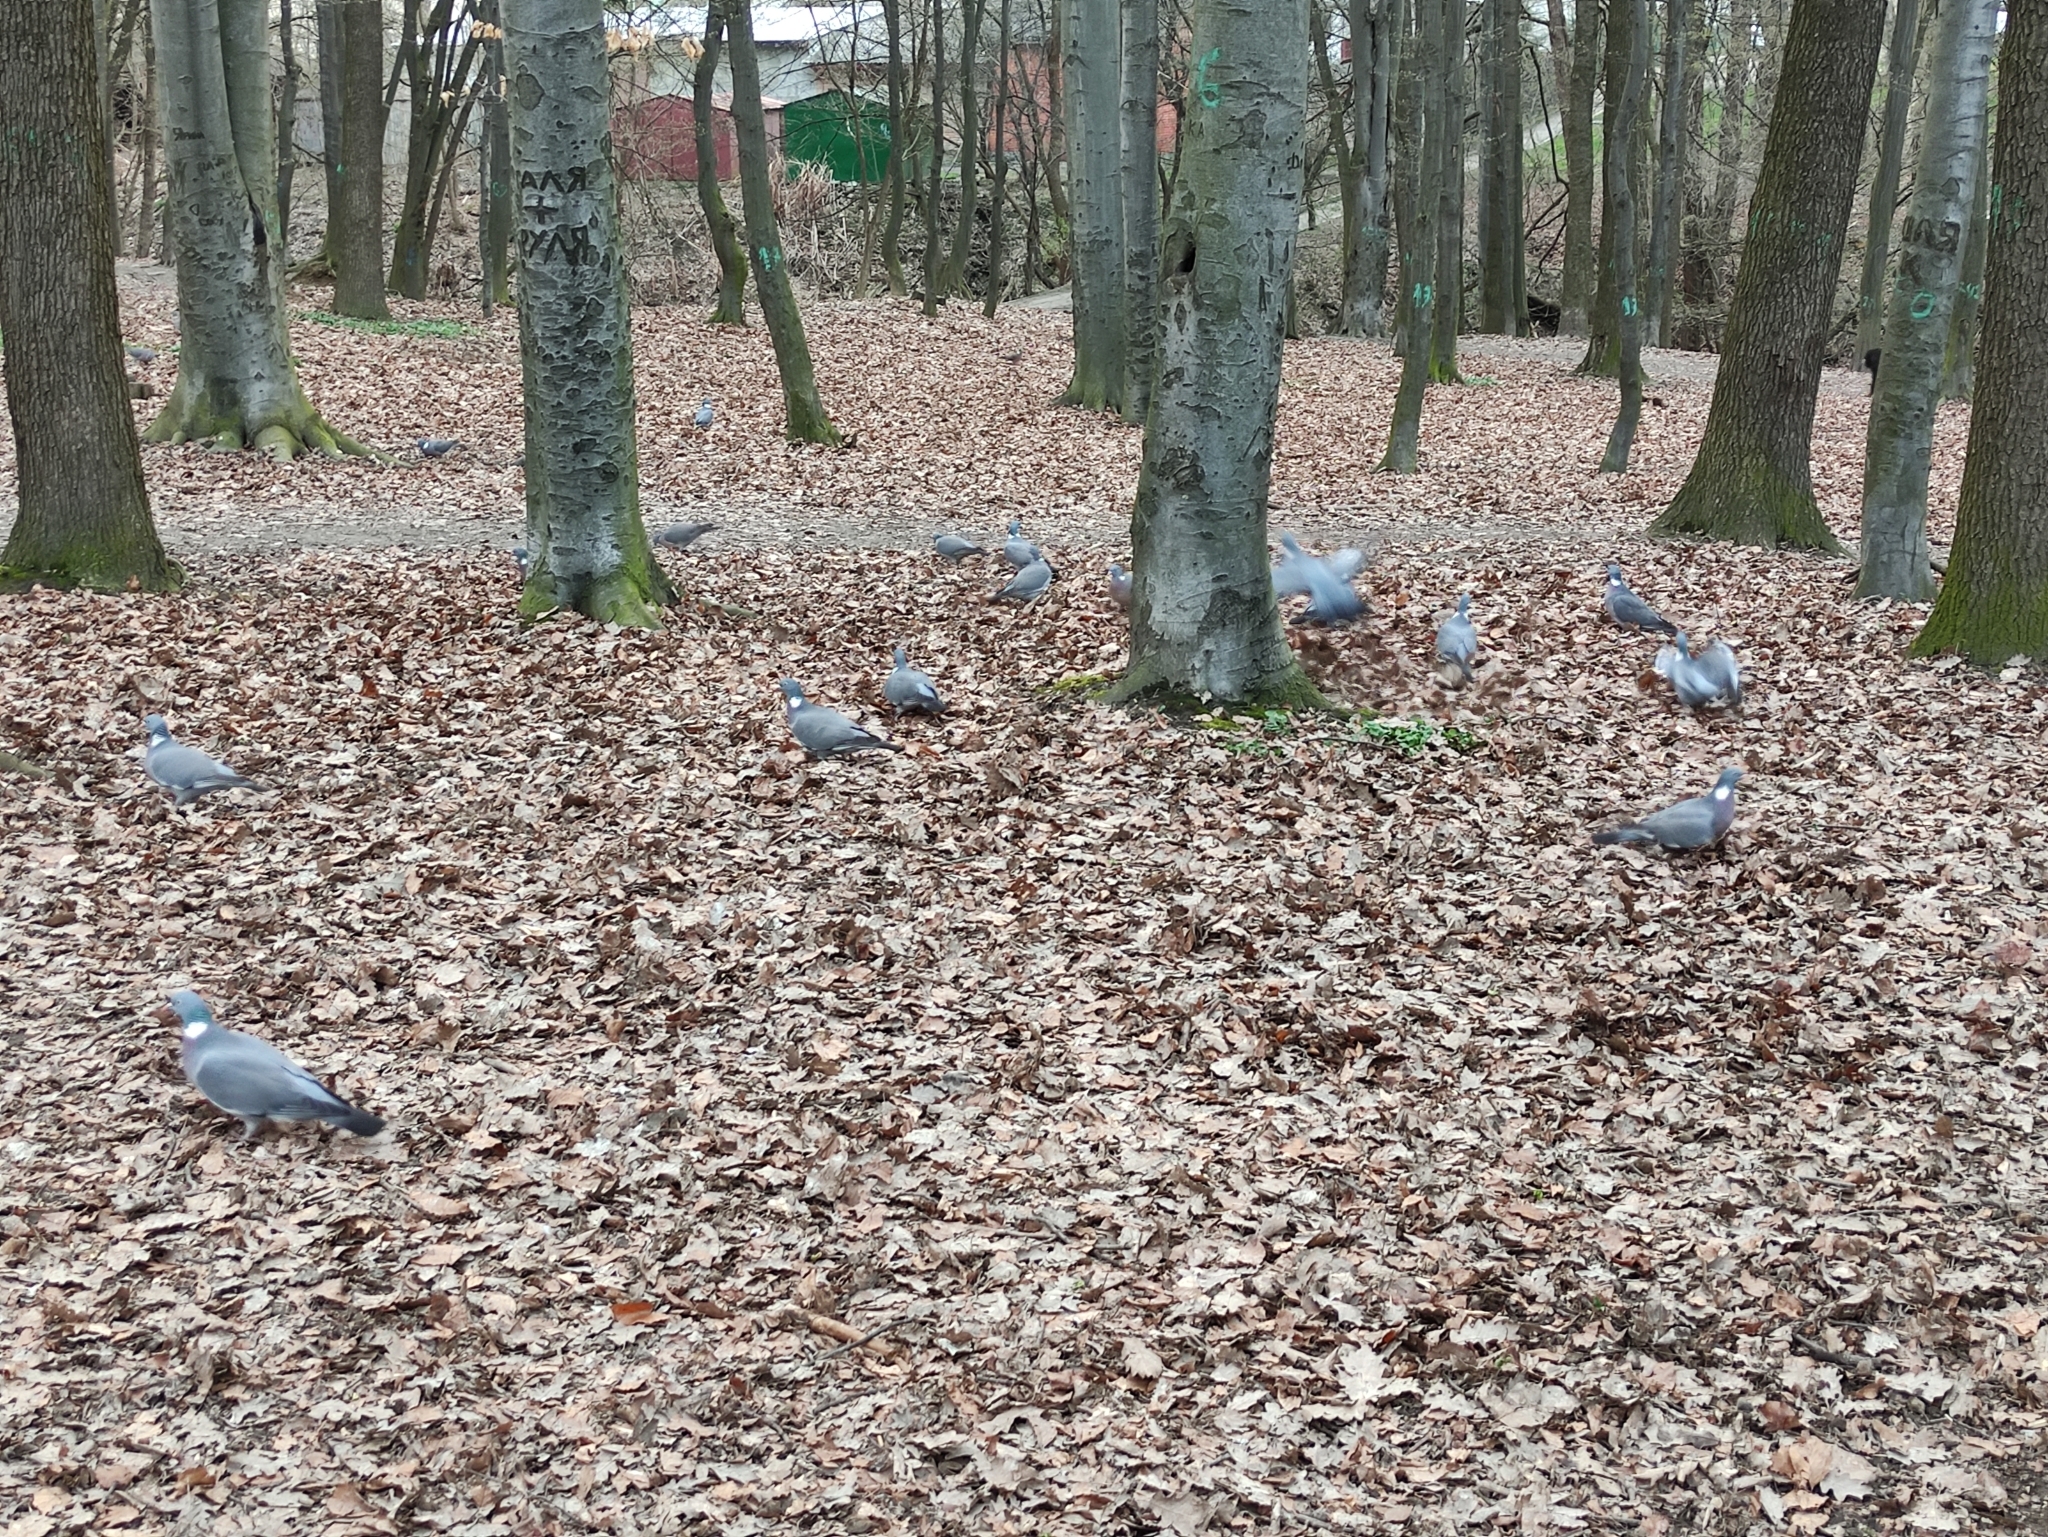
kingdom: Animalia
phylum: Chordata
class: Aves
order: Columbiformes
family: Columbidae
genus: Columba
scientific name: Columba palumbus
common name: Common wood pigeon
